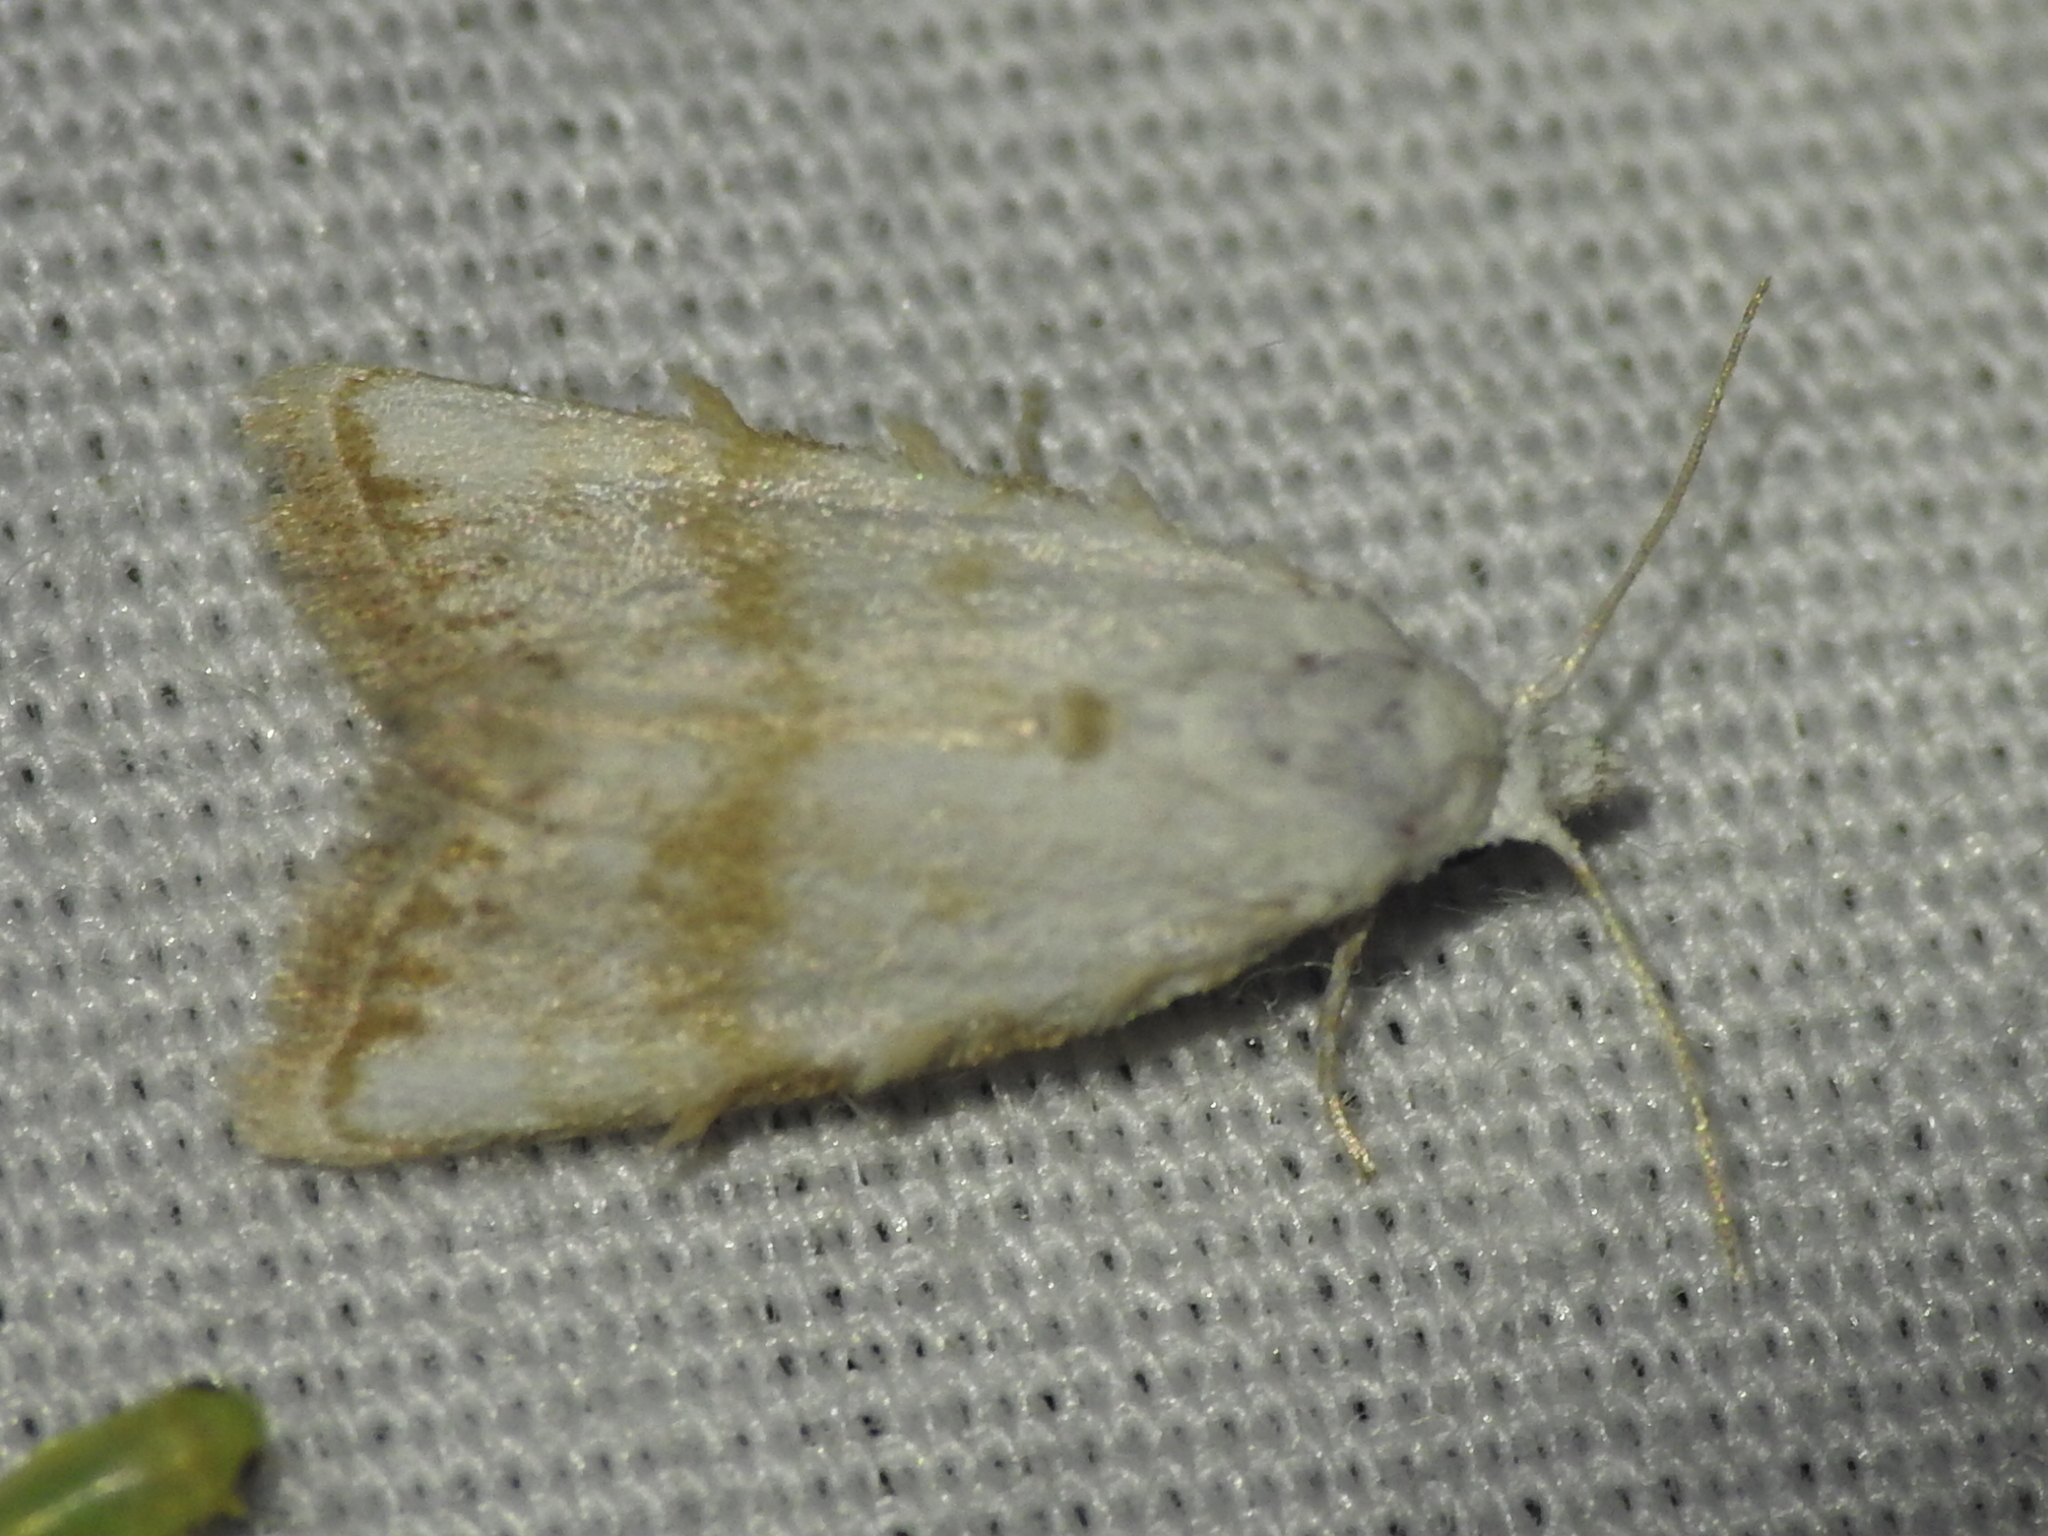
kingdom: Animalia
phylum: Arthropoda
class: Insecta
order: Lepidoptera
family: Nolidae
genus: Nola
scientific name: Nola cereella
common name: Sorghum webworm moth
